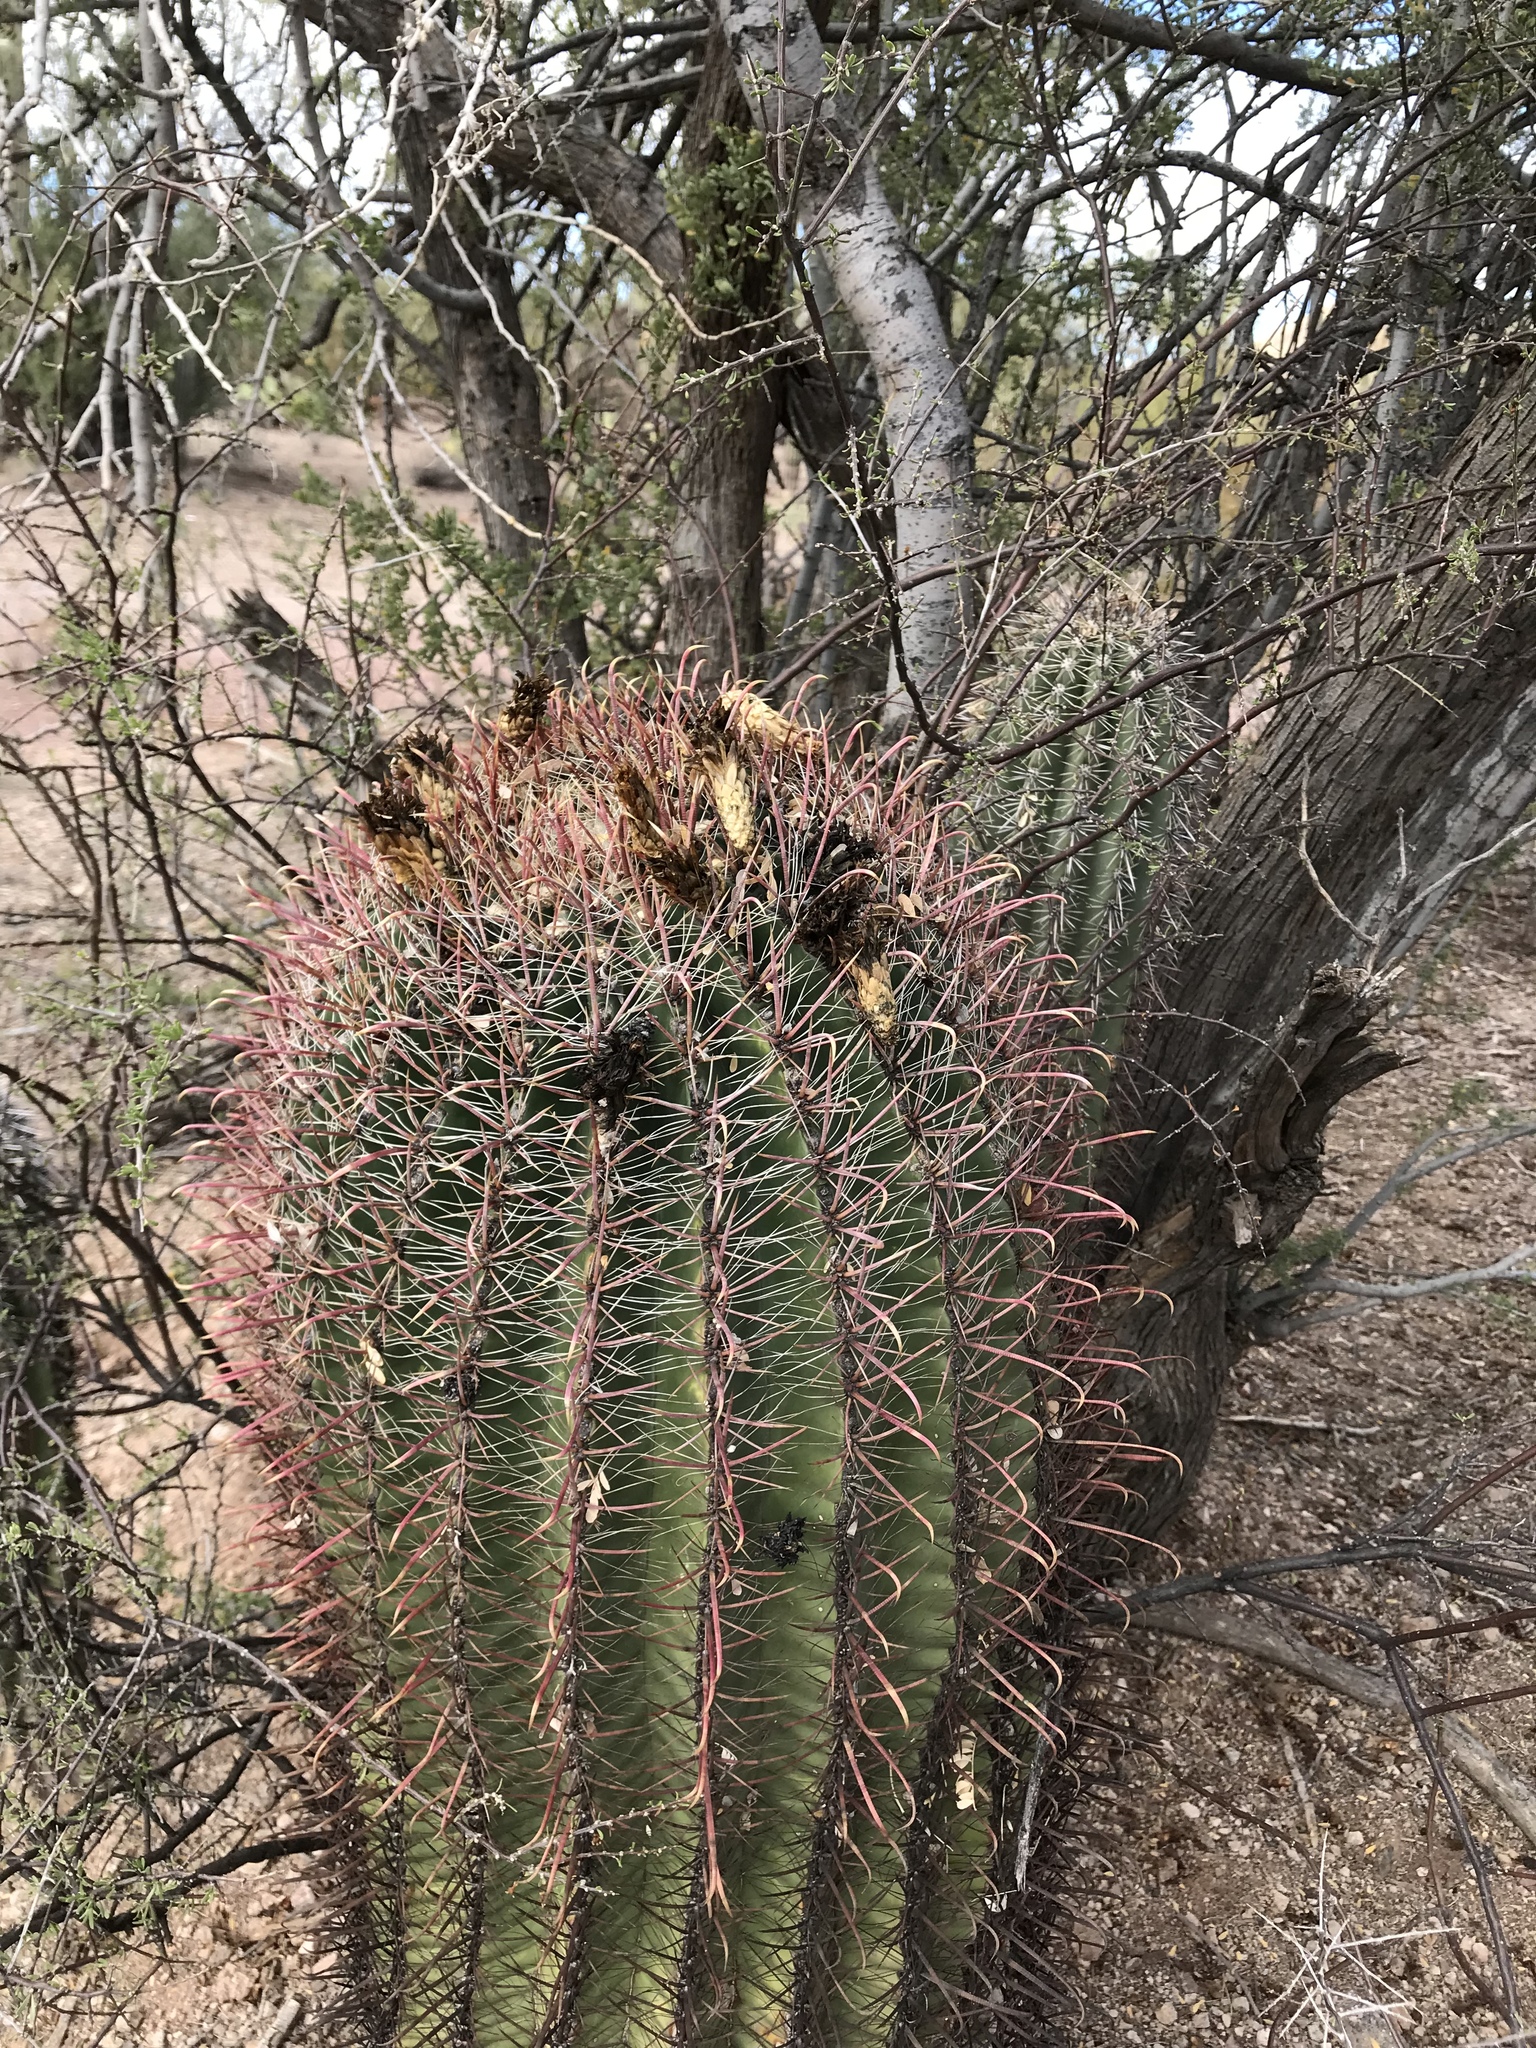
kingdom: Plantae
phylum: Tracheophyta
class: Magnoliopsida
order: Caryophyllales
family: Cactaceae
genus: Ferocactus
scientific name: Ferocactus cylindraceus
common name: California barrel cactus
